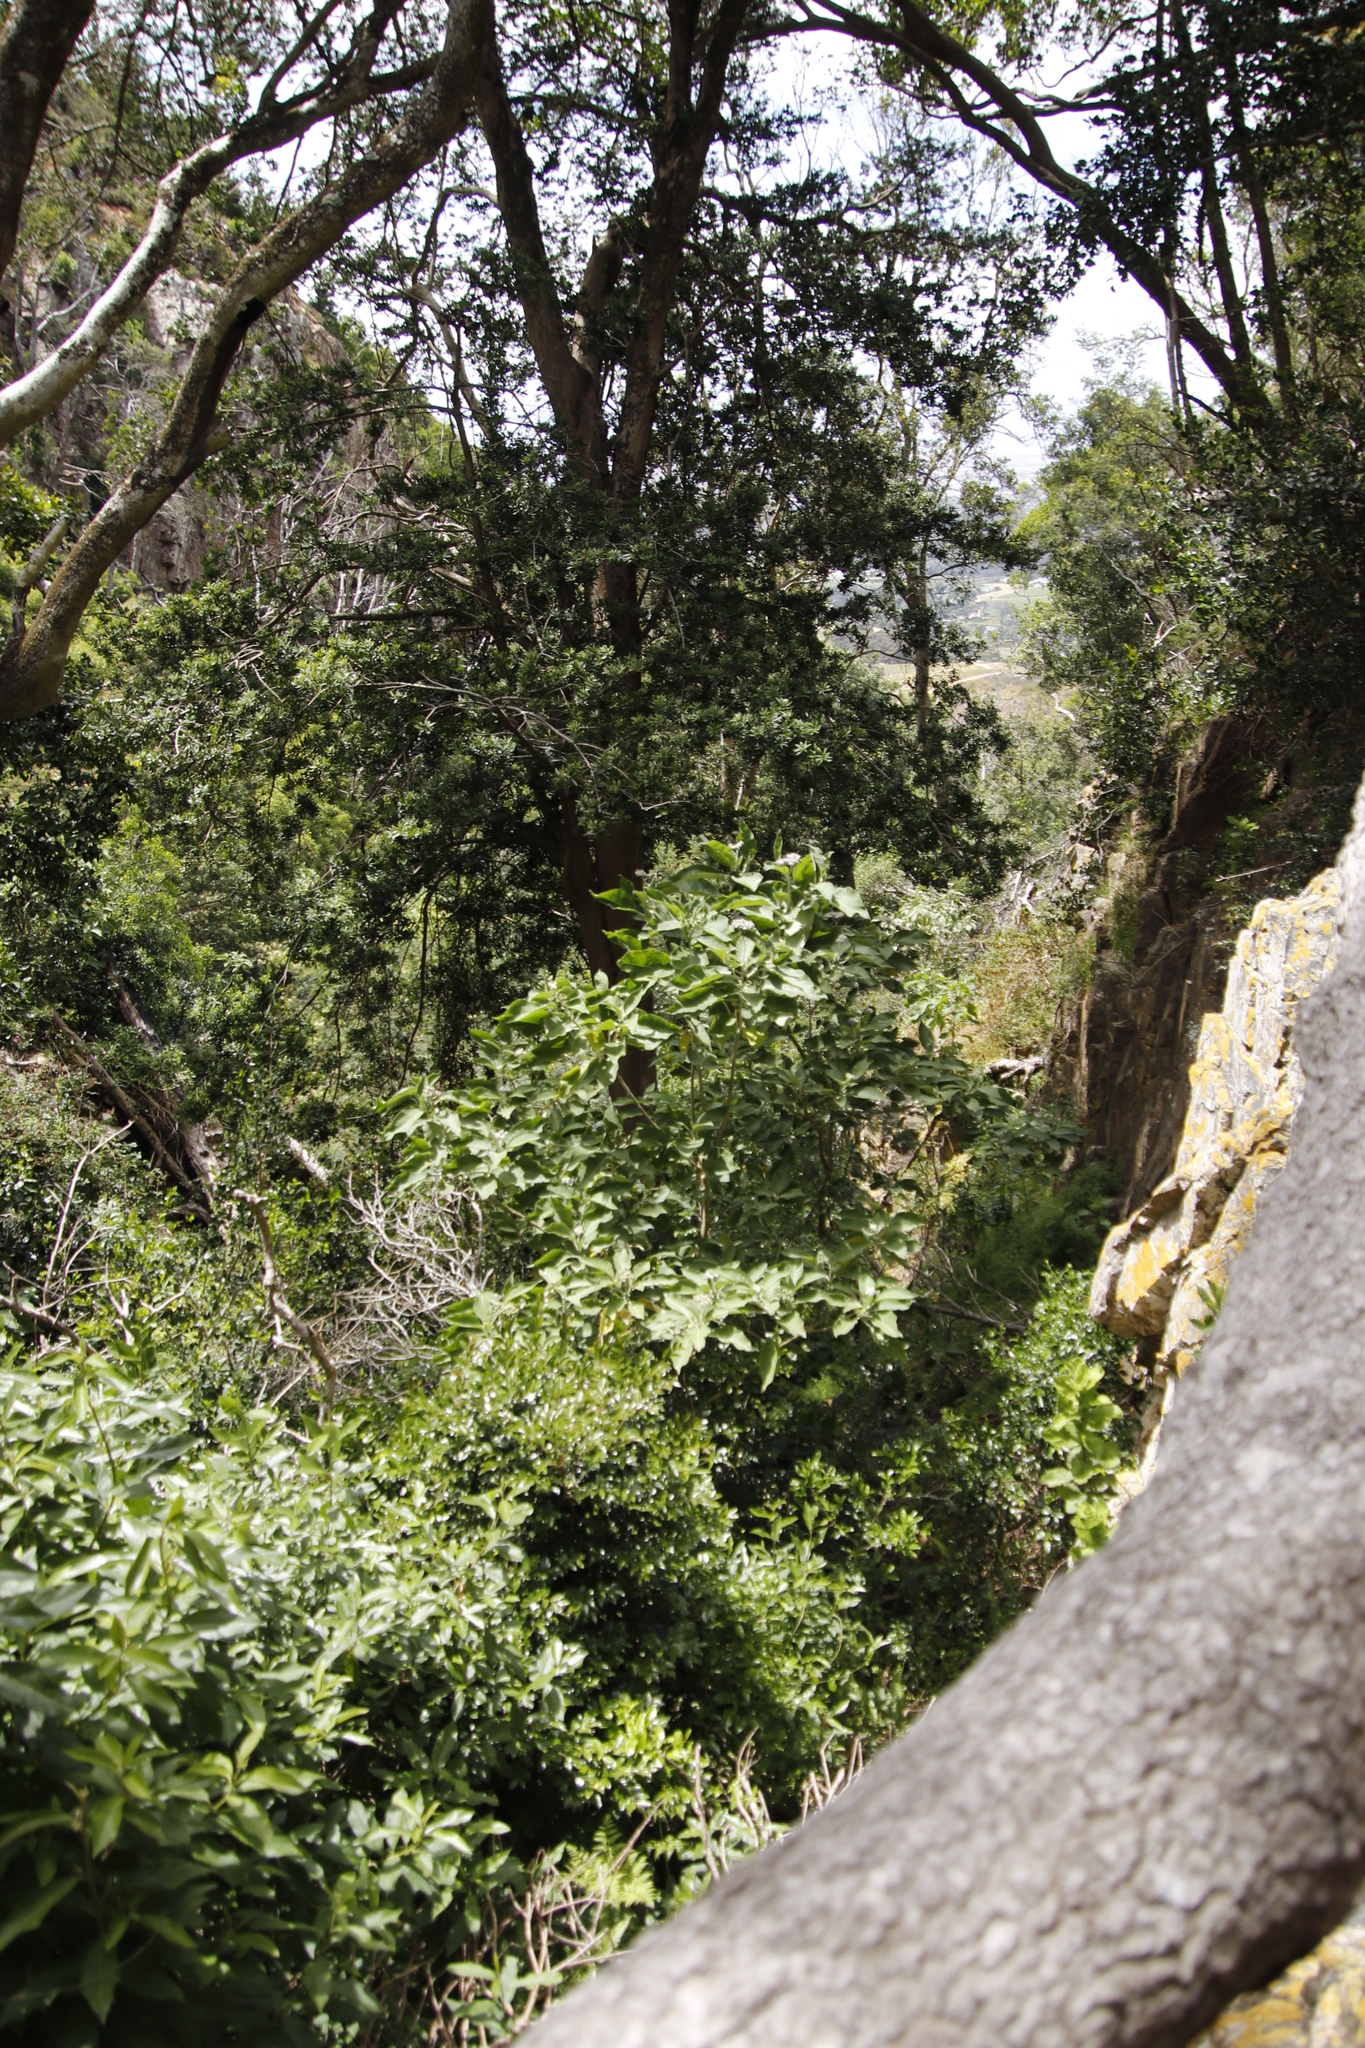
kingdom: Plantae
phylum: Tracheophyta
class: Magnoliopsida
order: Solanales
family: Solanaceae
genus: Solanum
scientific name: Solanum mauritianum
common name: Earleaf nightshade
